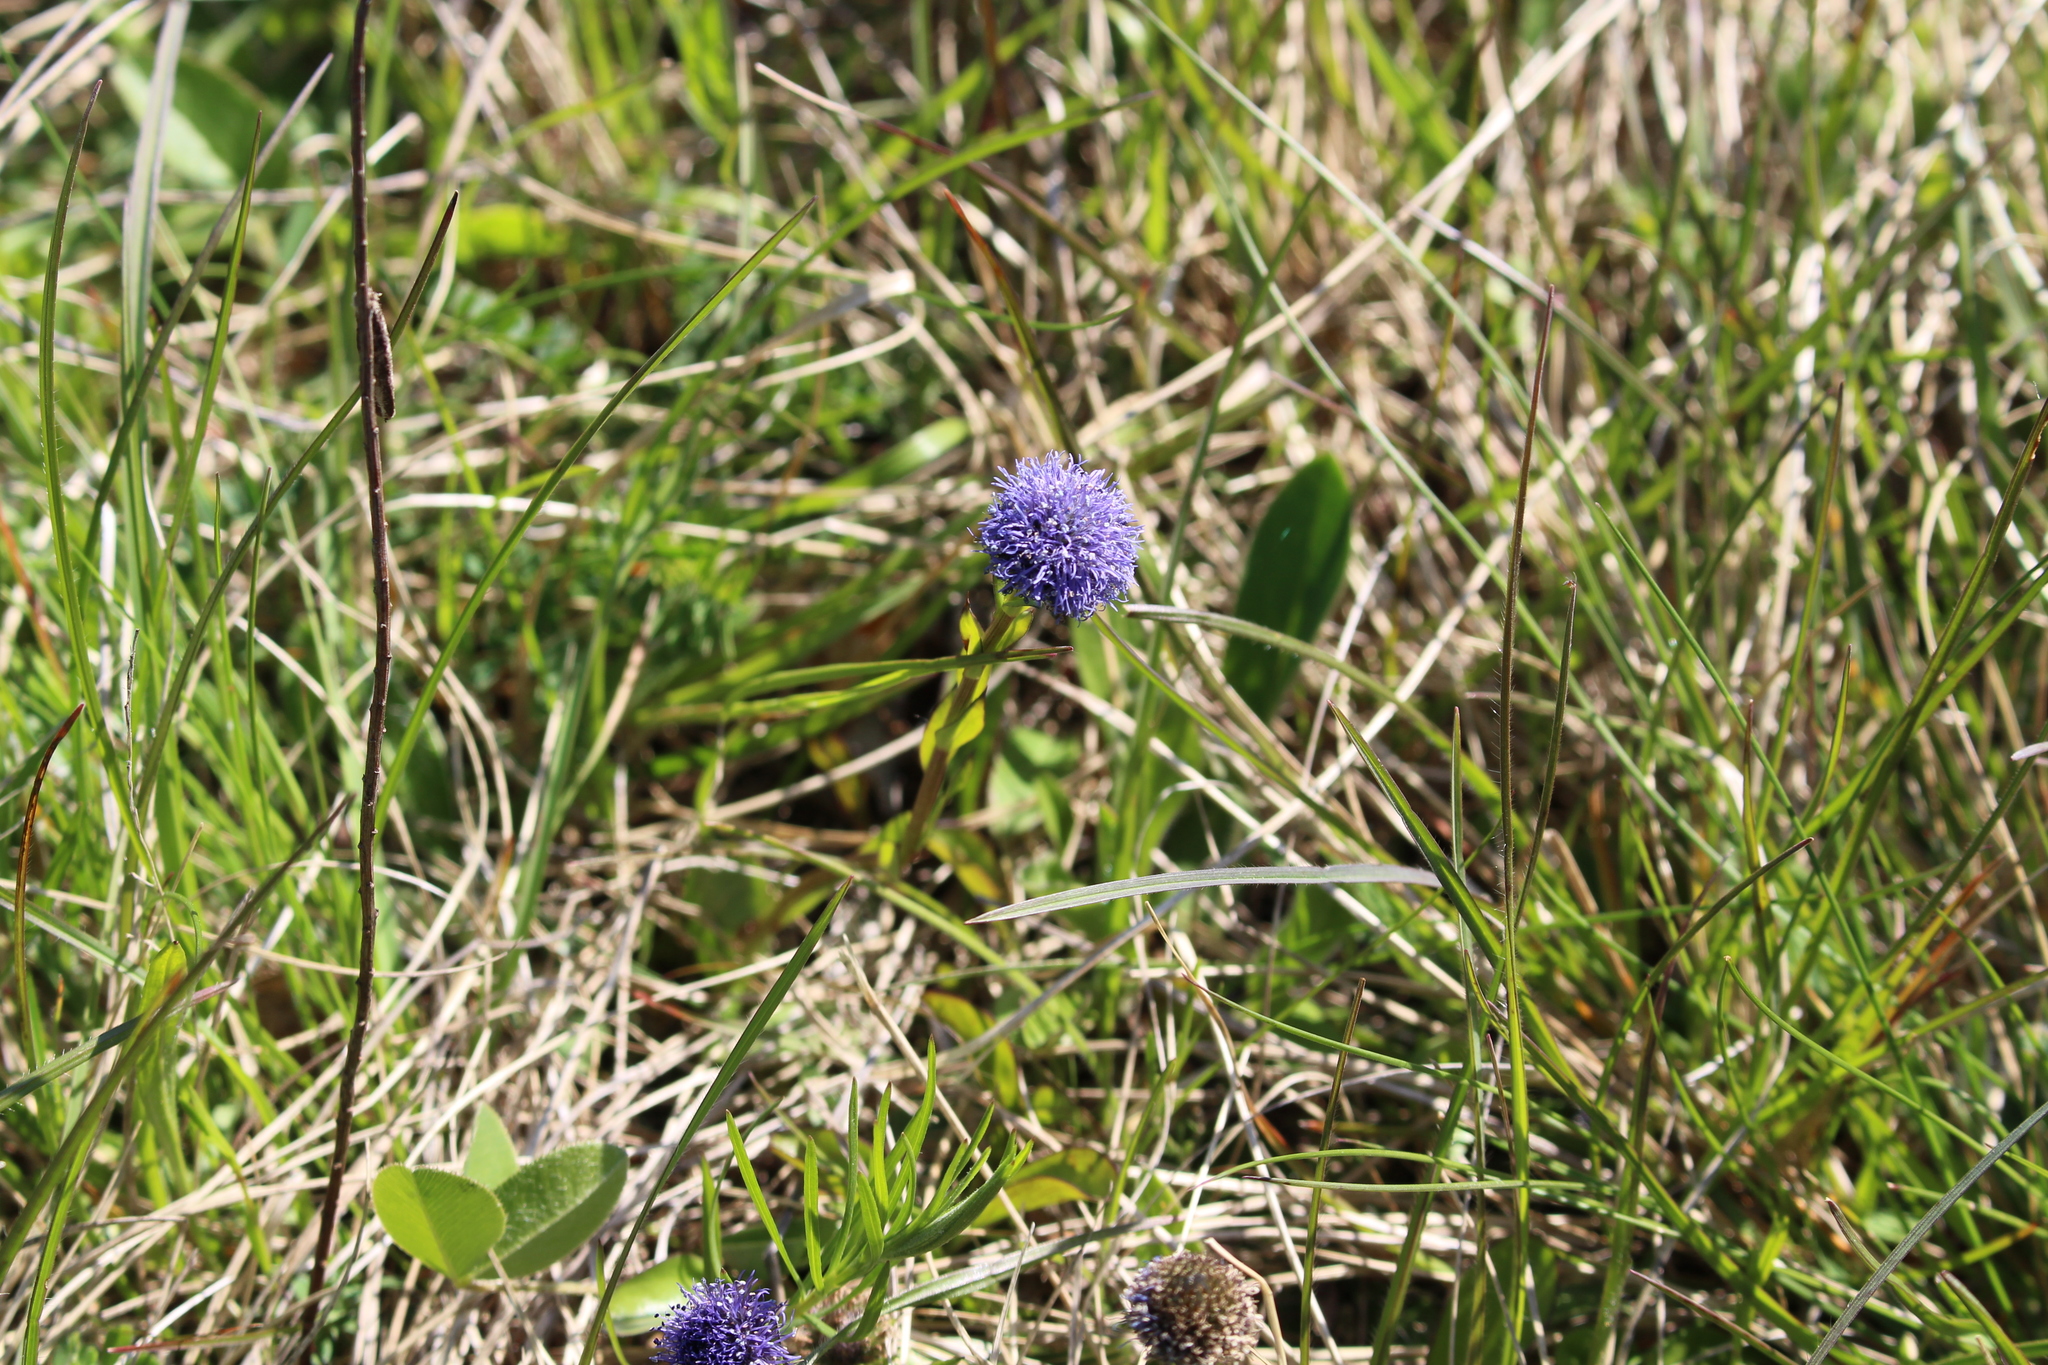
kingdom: Plantae
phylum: Tracheophyta
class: Magnoliopsida
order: Lamiales
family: Plantaginaceae
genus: Globularia
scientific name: Globularia bisnagarica
